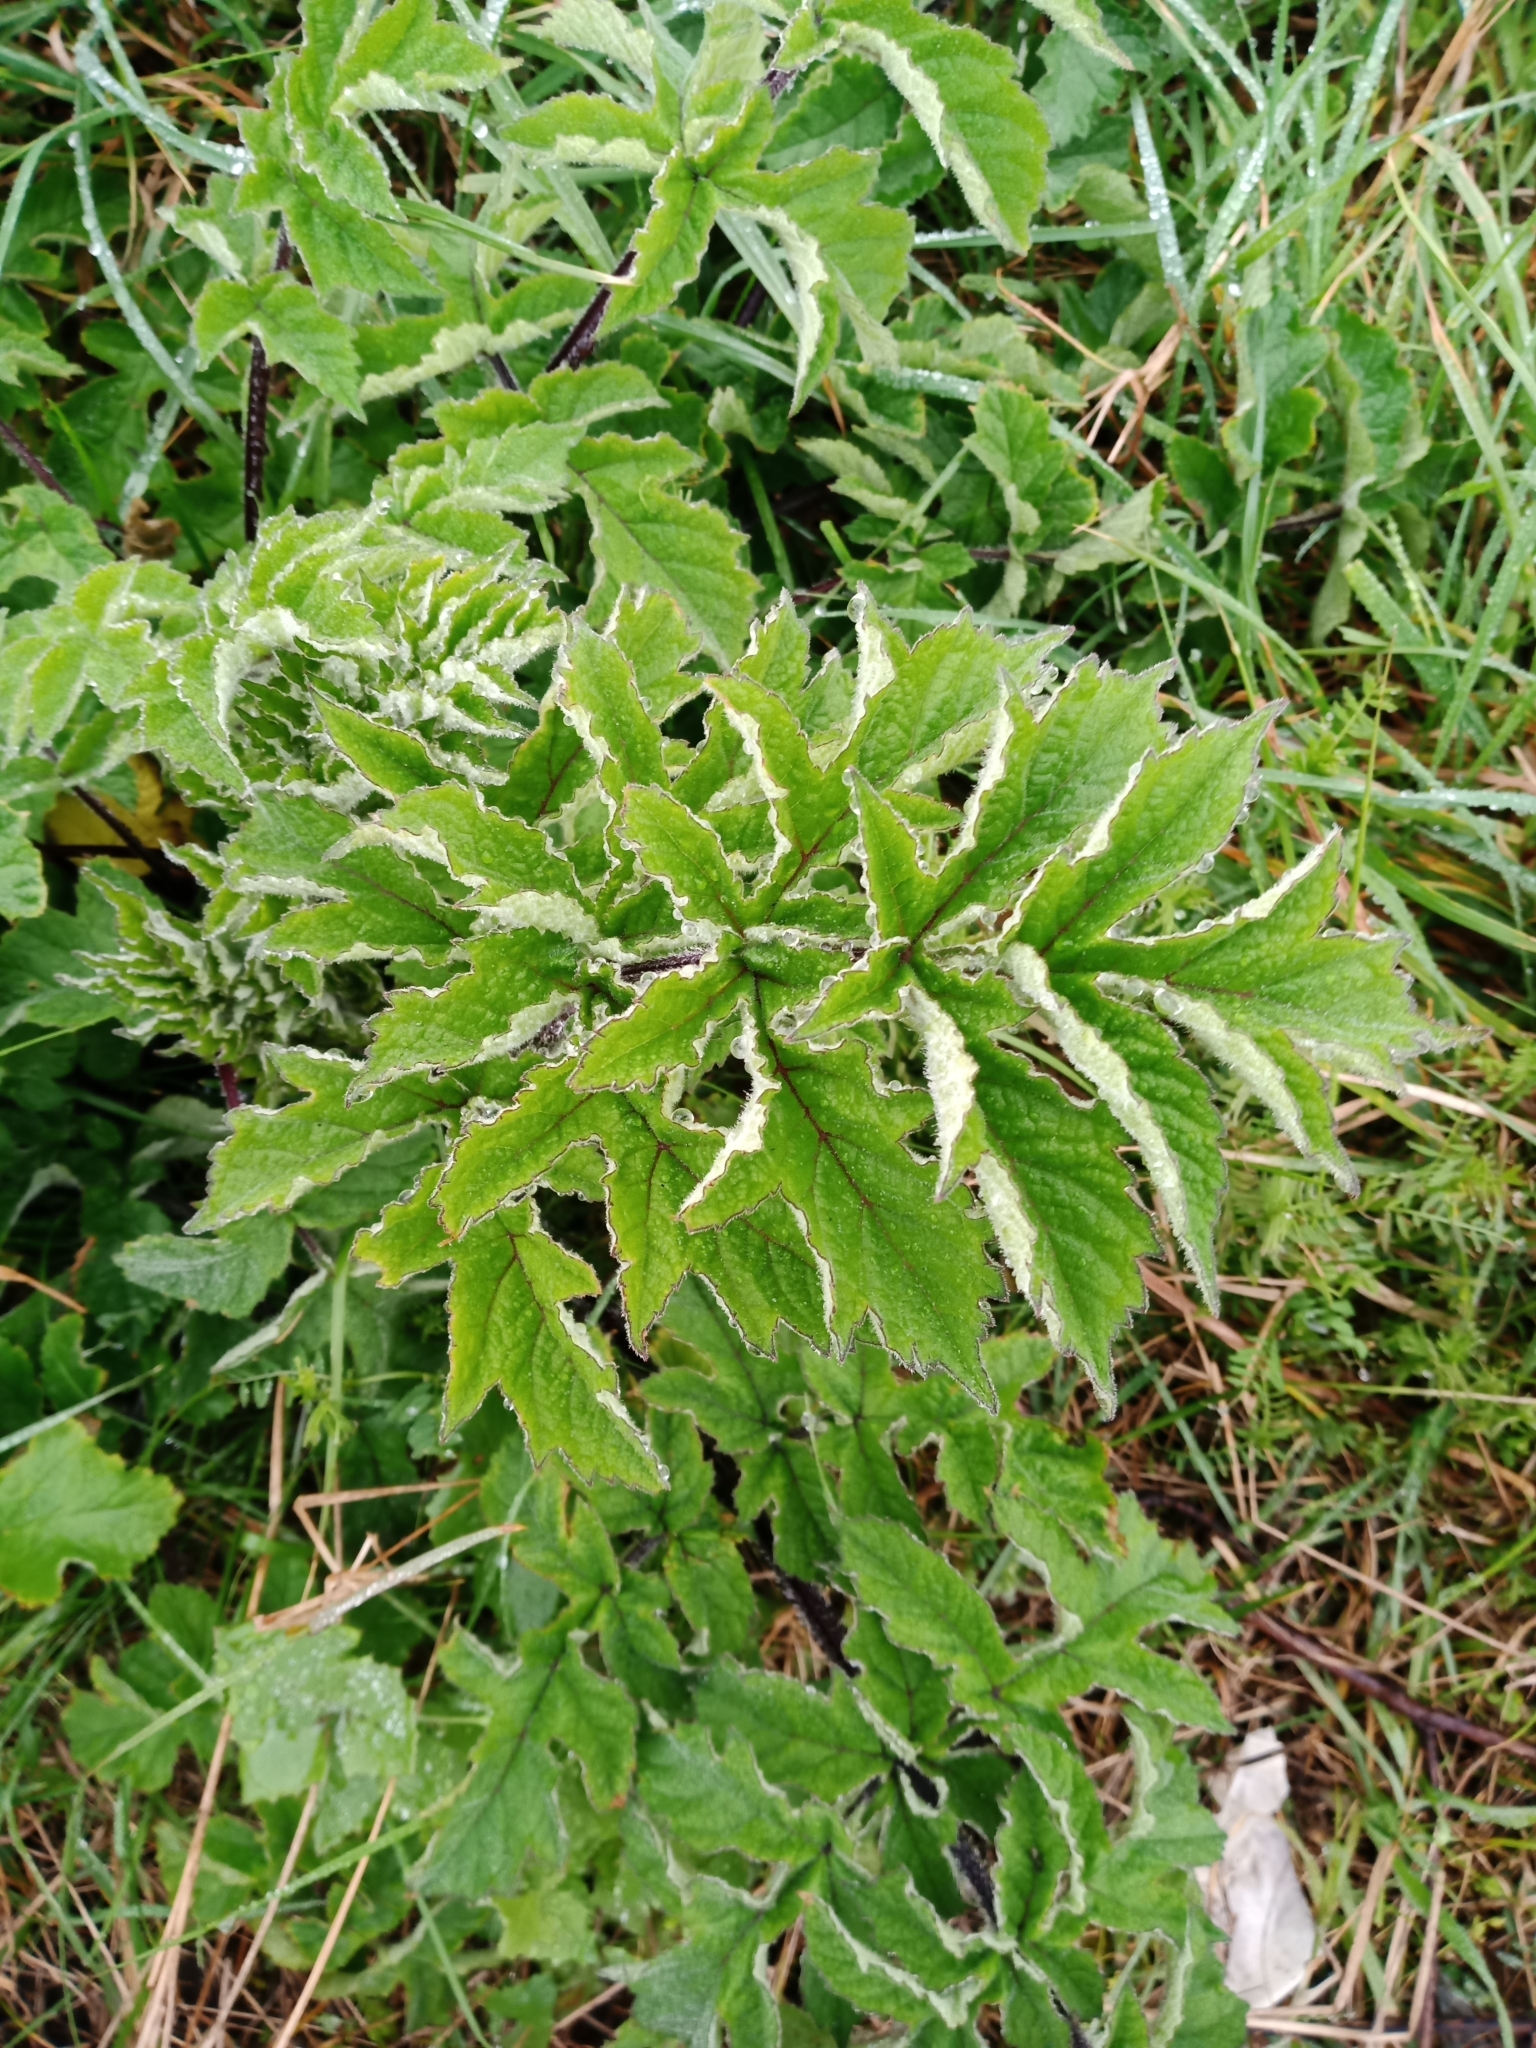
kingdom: Plantae
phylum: Tracheophyta
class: Magnoliopsida
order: Apiales
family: Apiaceae
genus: Heracleum
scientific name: Heracleum sphondylium
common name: Hogweed
